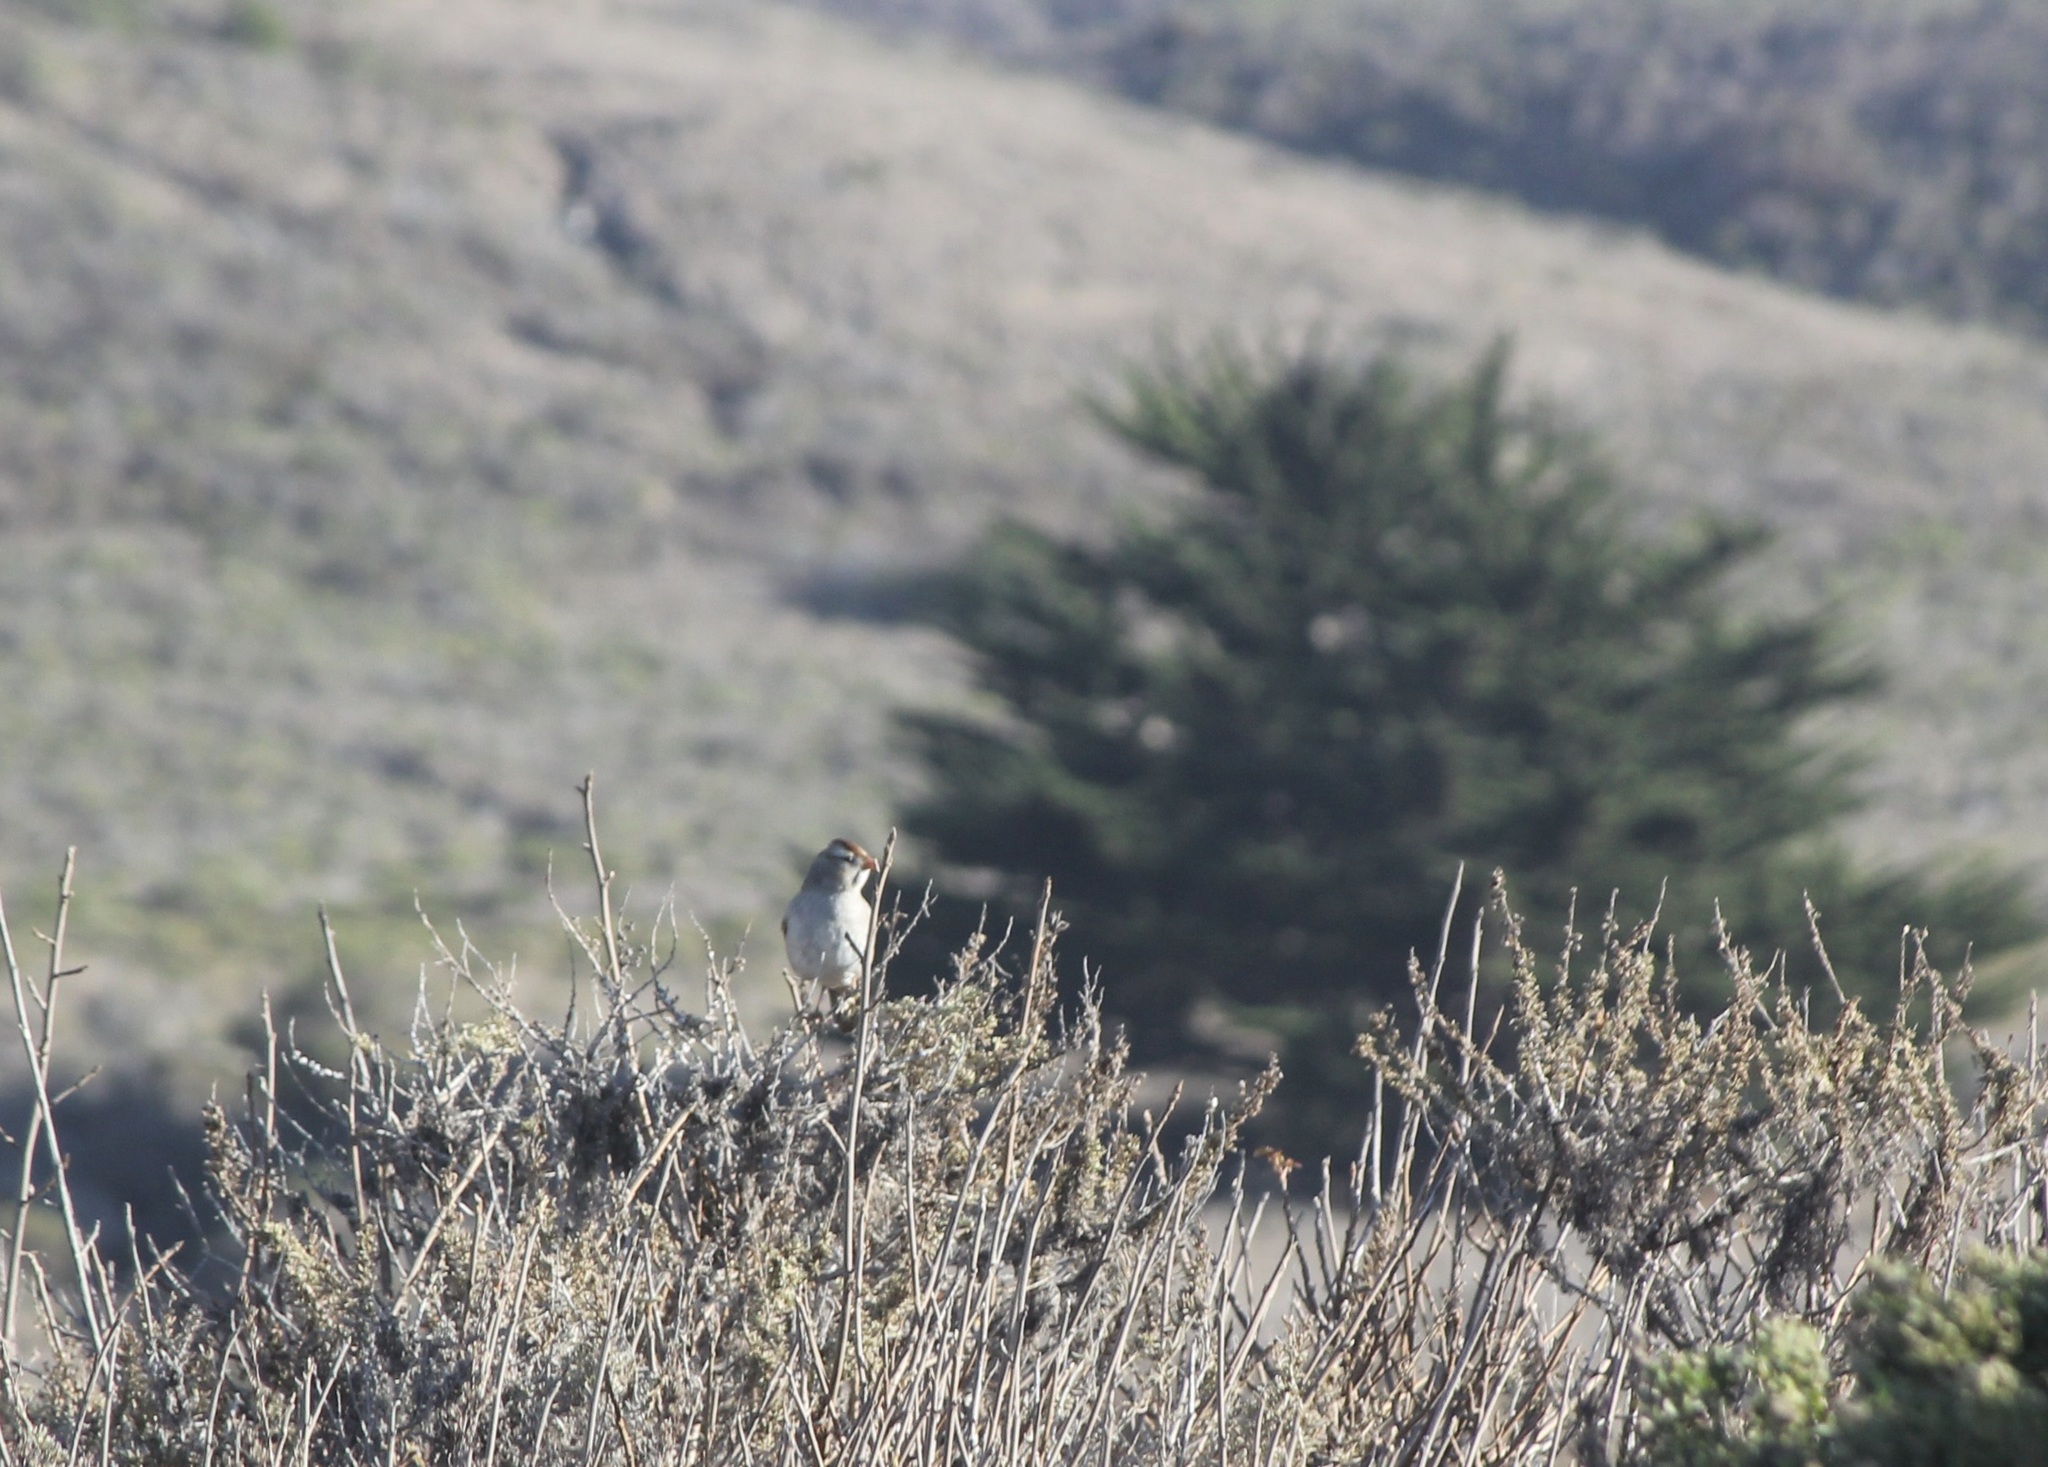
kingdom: Animalia
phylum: Chordata
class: Aves
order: Passeriformes
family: Passerellidae
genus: Zonotrichia
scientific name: Zonotrichia leucophrys
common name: White-crowned sparrow
